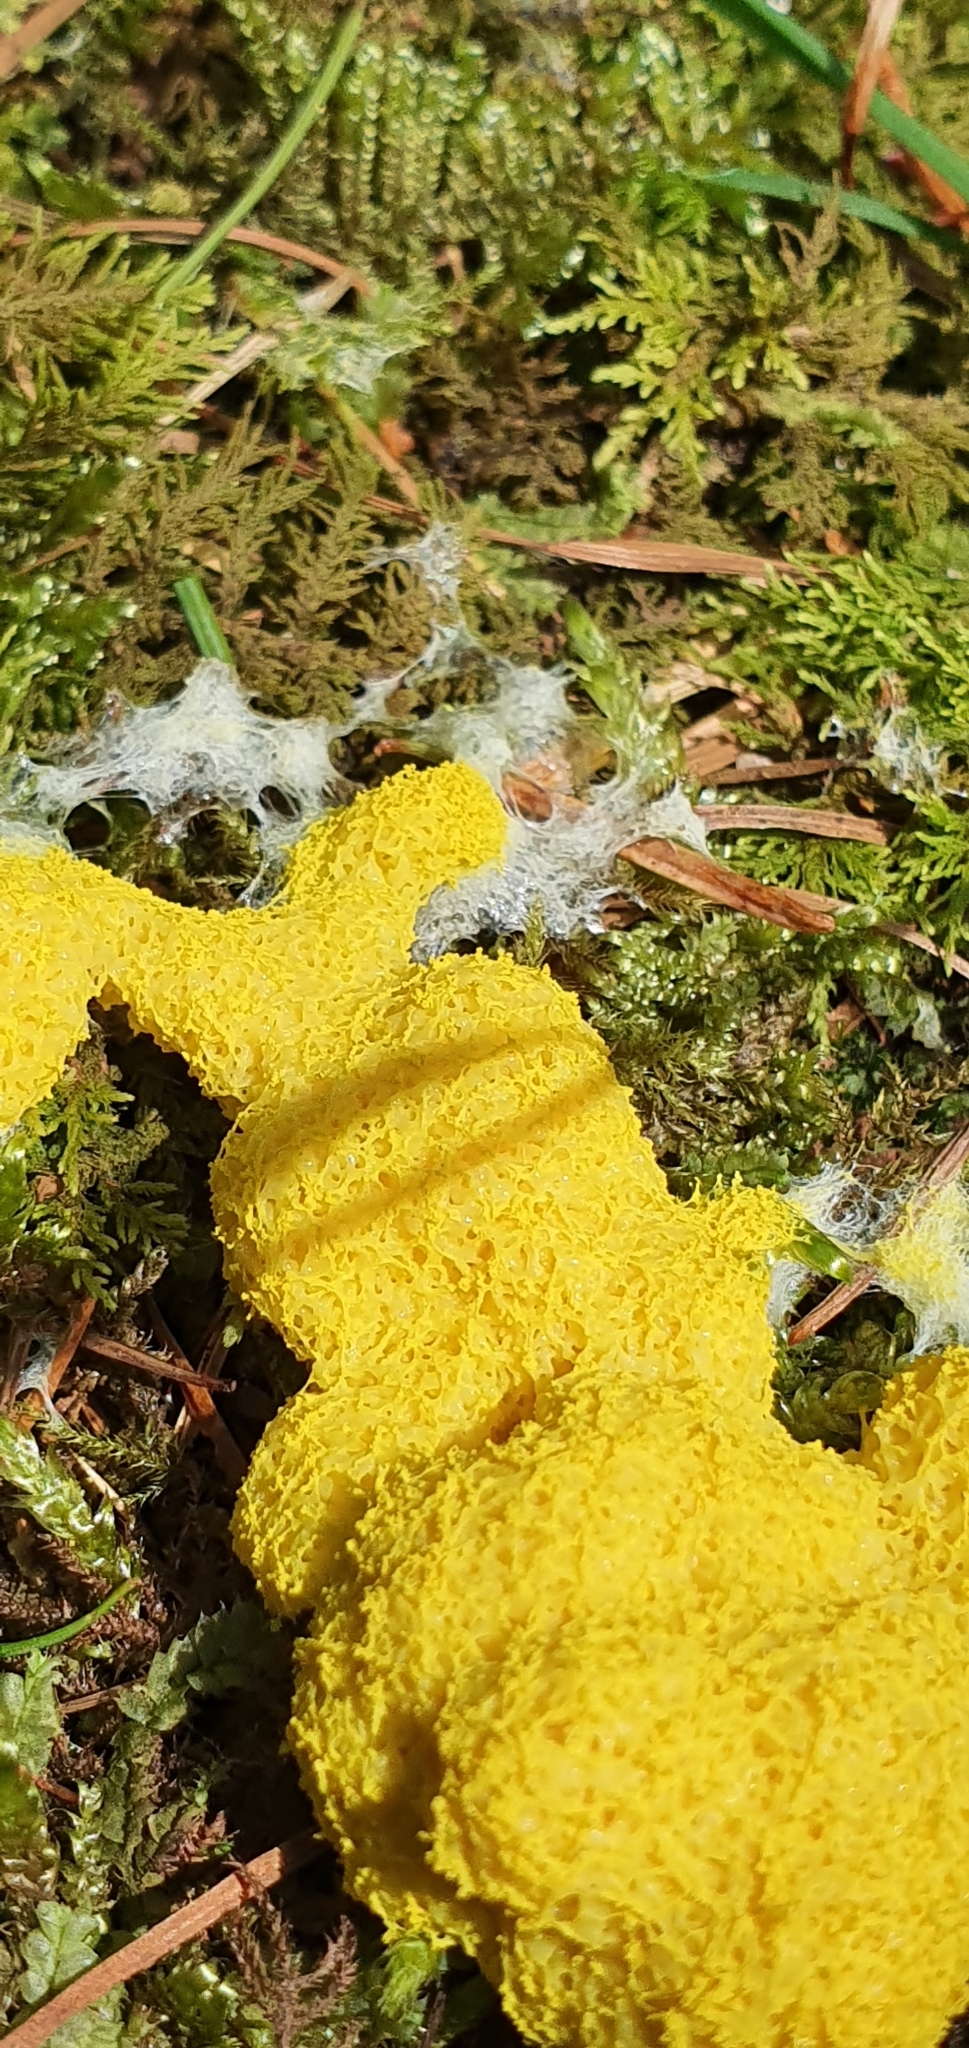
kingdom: Protozoa
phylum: Mycetozoa
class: Myxomycetes
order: Physarales
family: Physaraceae
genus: Fuligo
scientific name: Fuligo septica
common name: Dog vomit slime mold
